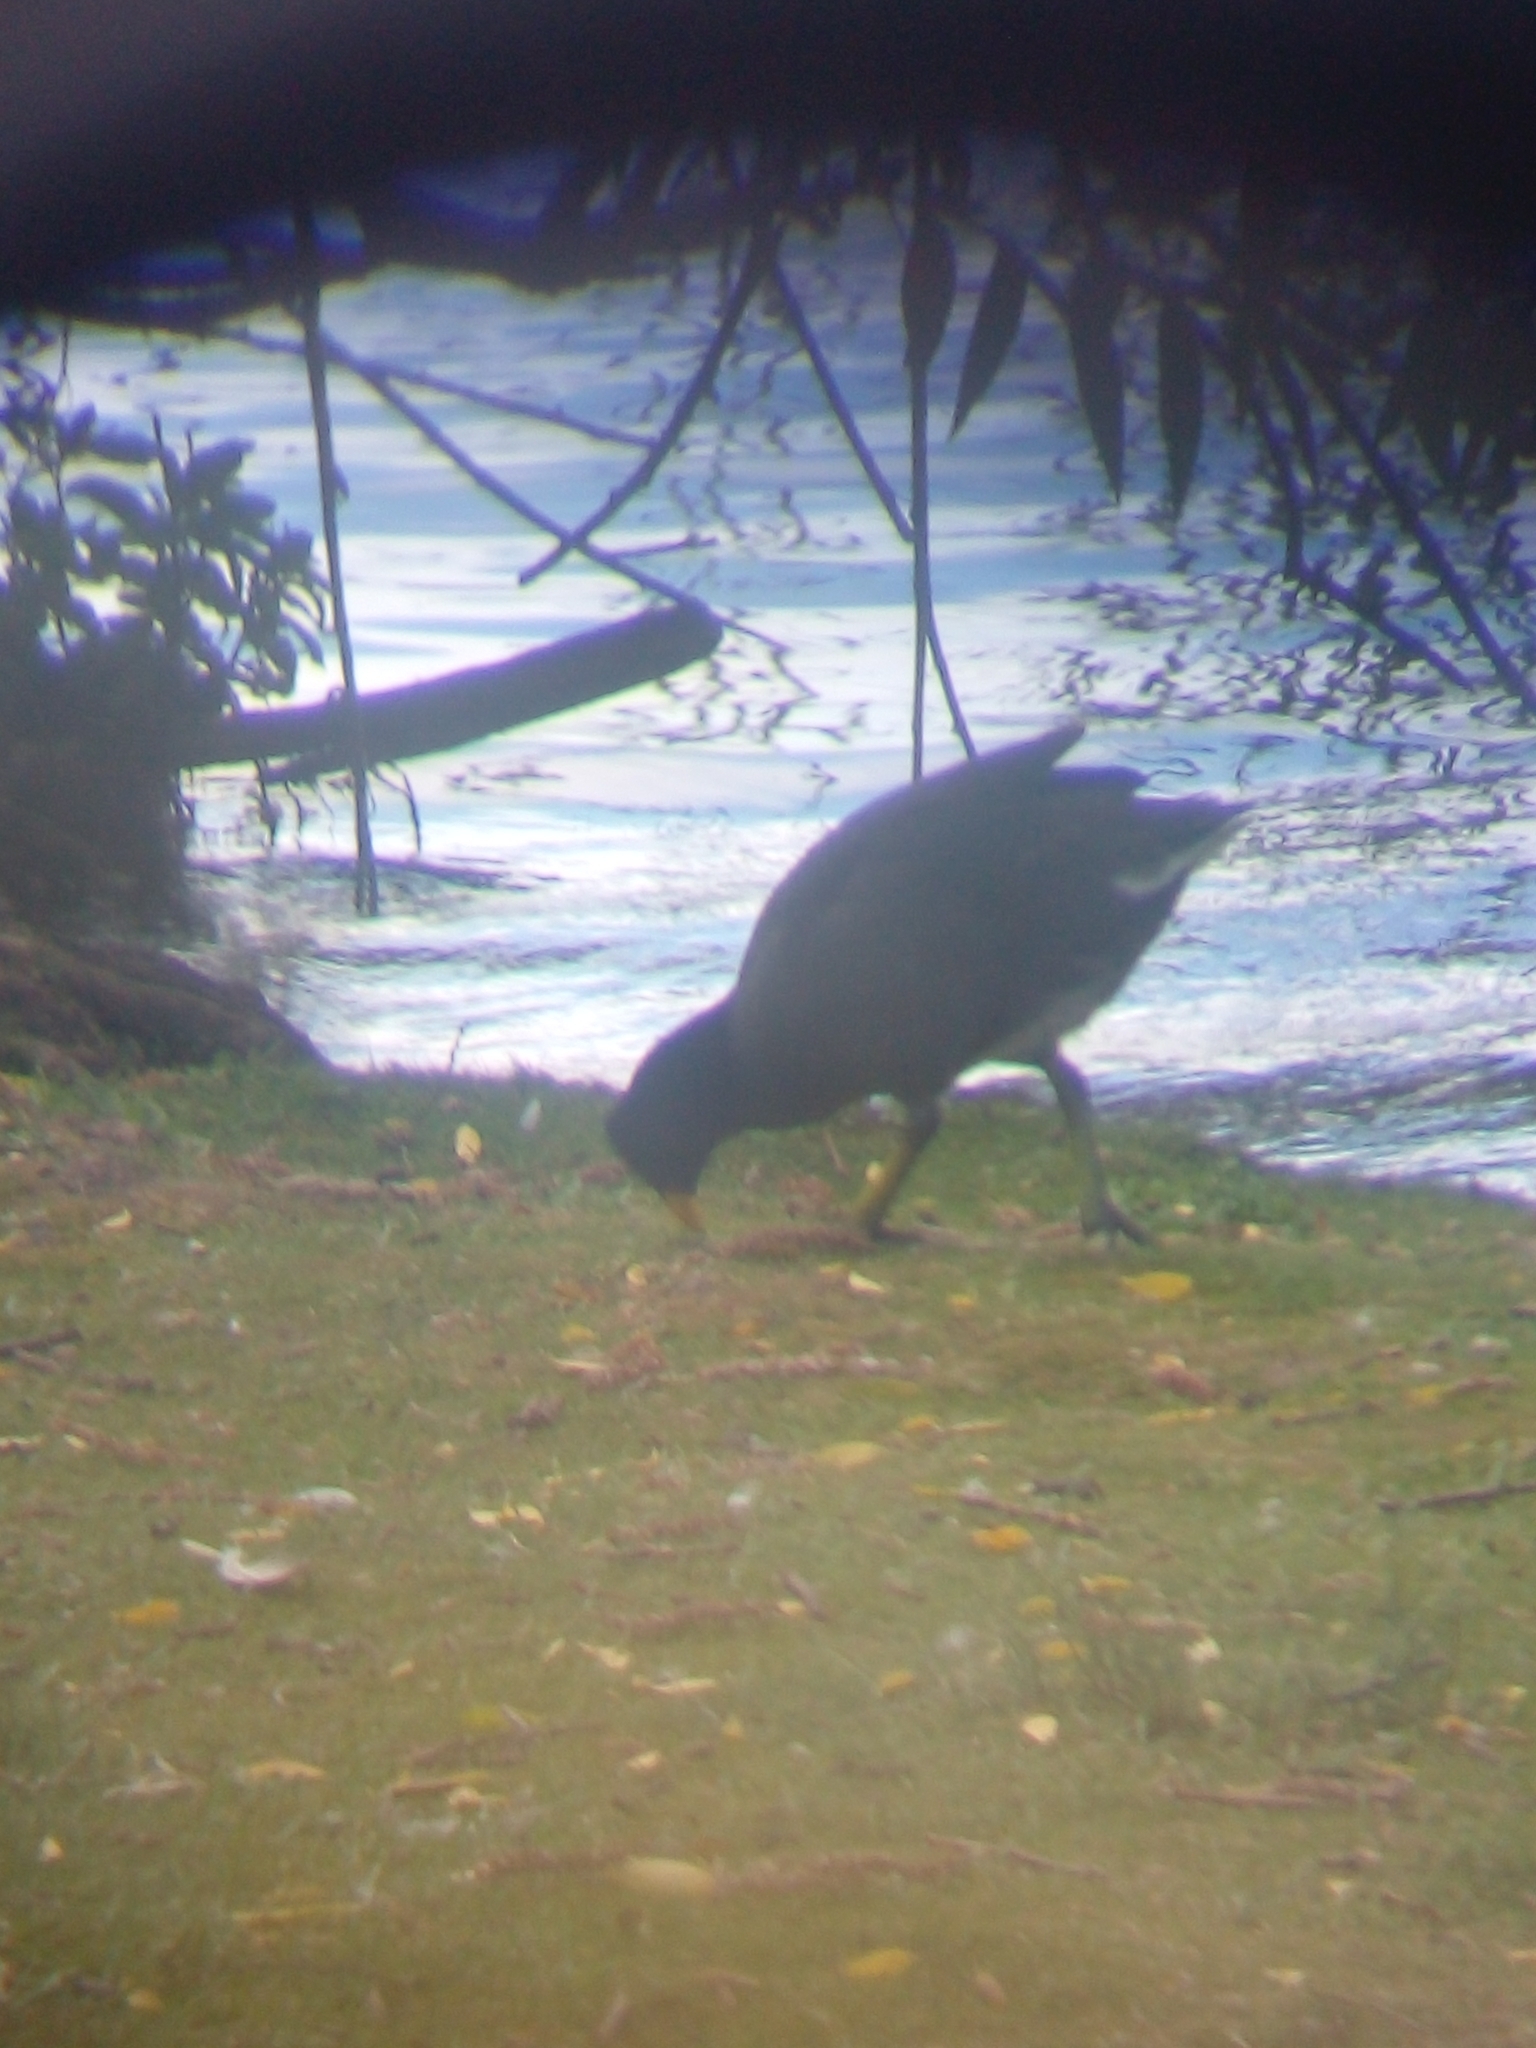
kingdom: Animalia
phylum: Chordata
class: Aves
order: Gruiformes
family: Rallidae
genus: Fulica
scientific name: Fulica rufifrons
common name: Red-fronted coot
